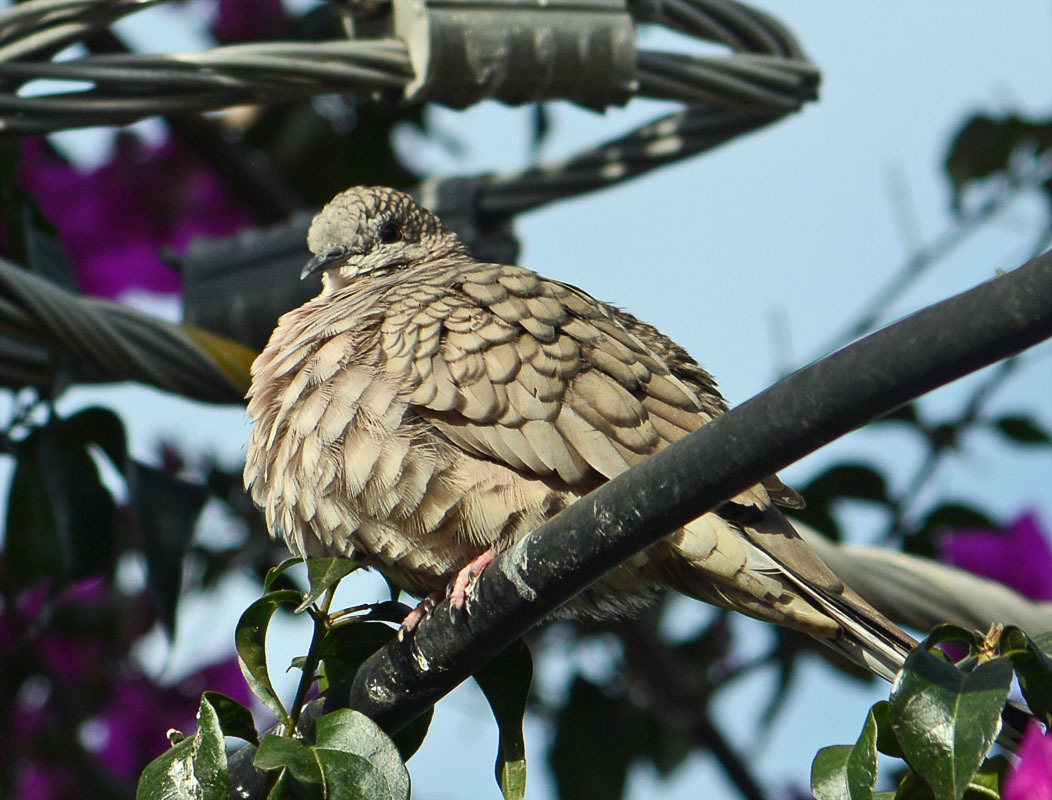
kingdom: Animalia
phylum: Chordata
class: Aves
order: Columbiformes
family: Columbidae
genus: Columbina
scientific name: Columbina inca
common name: Inca dove
